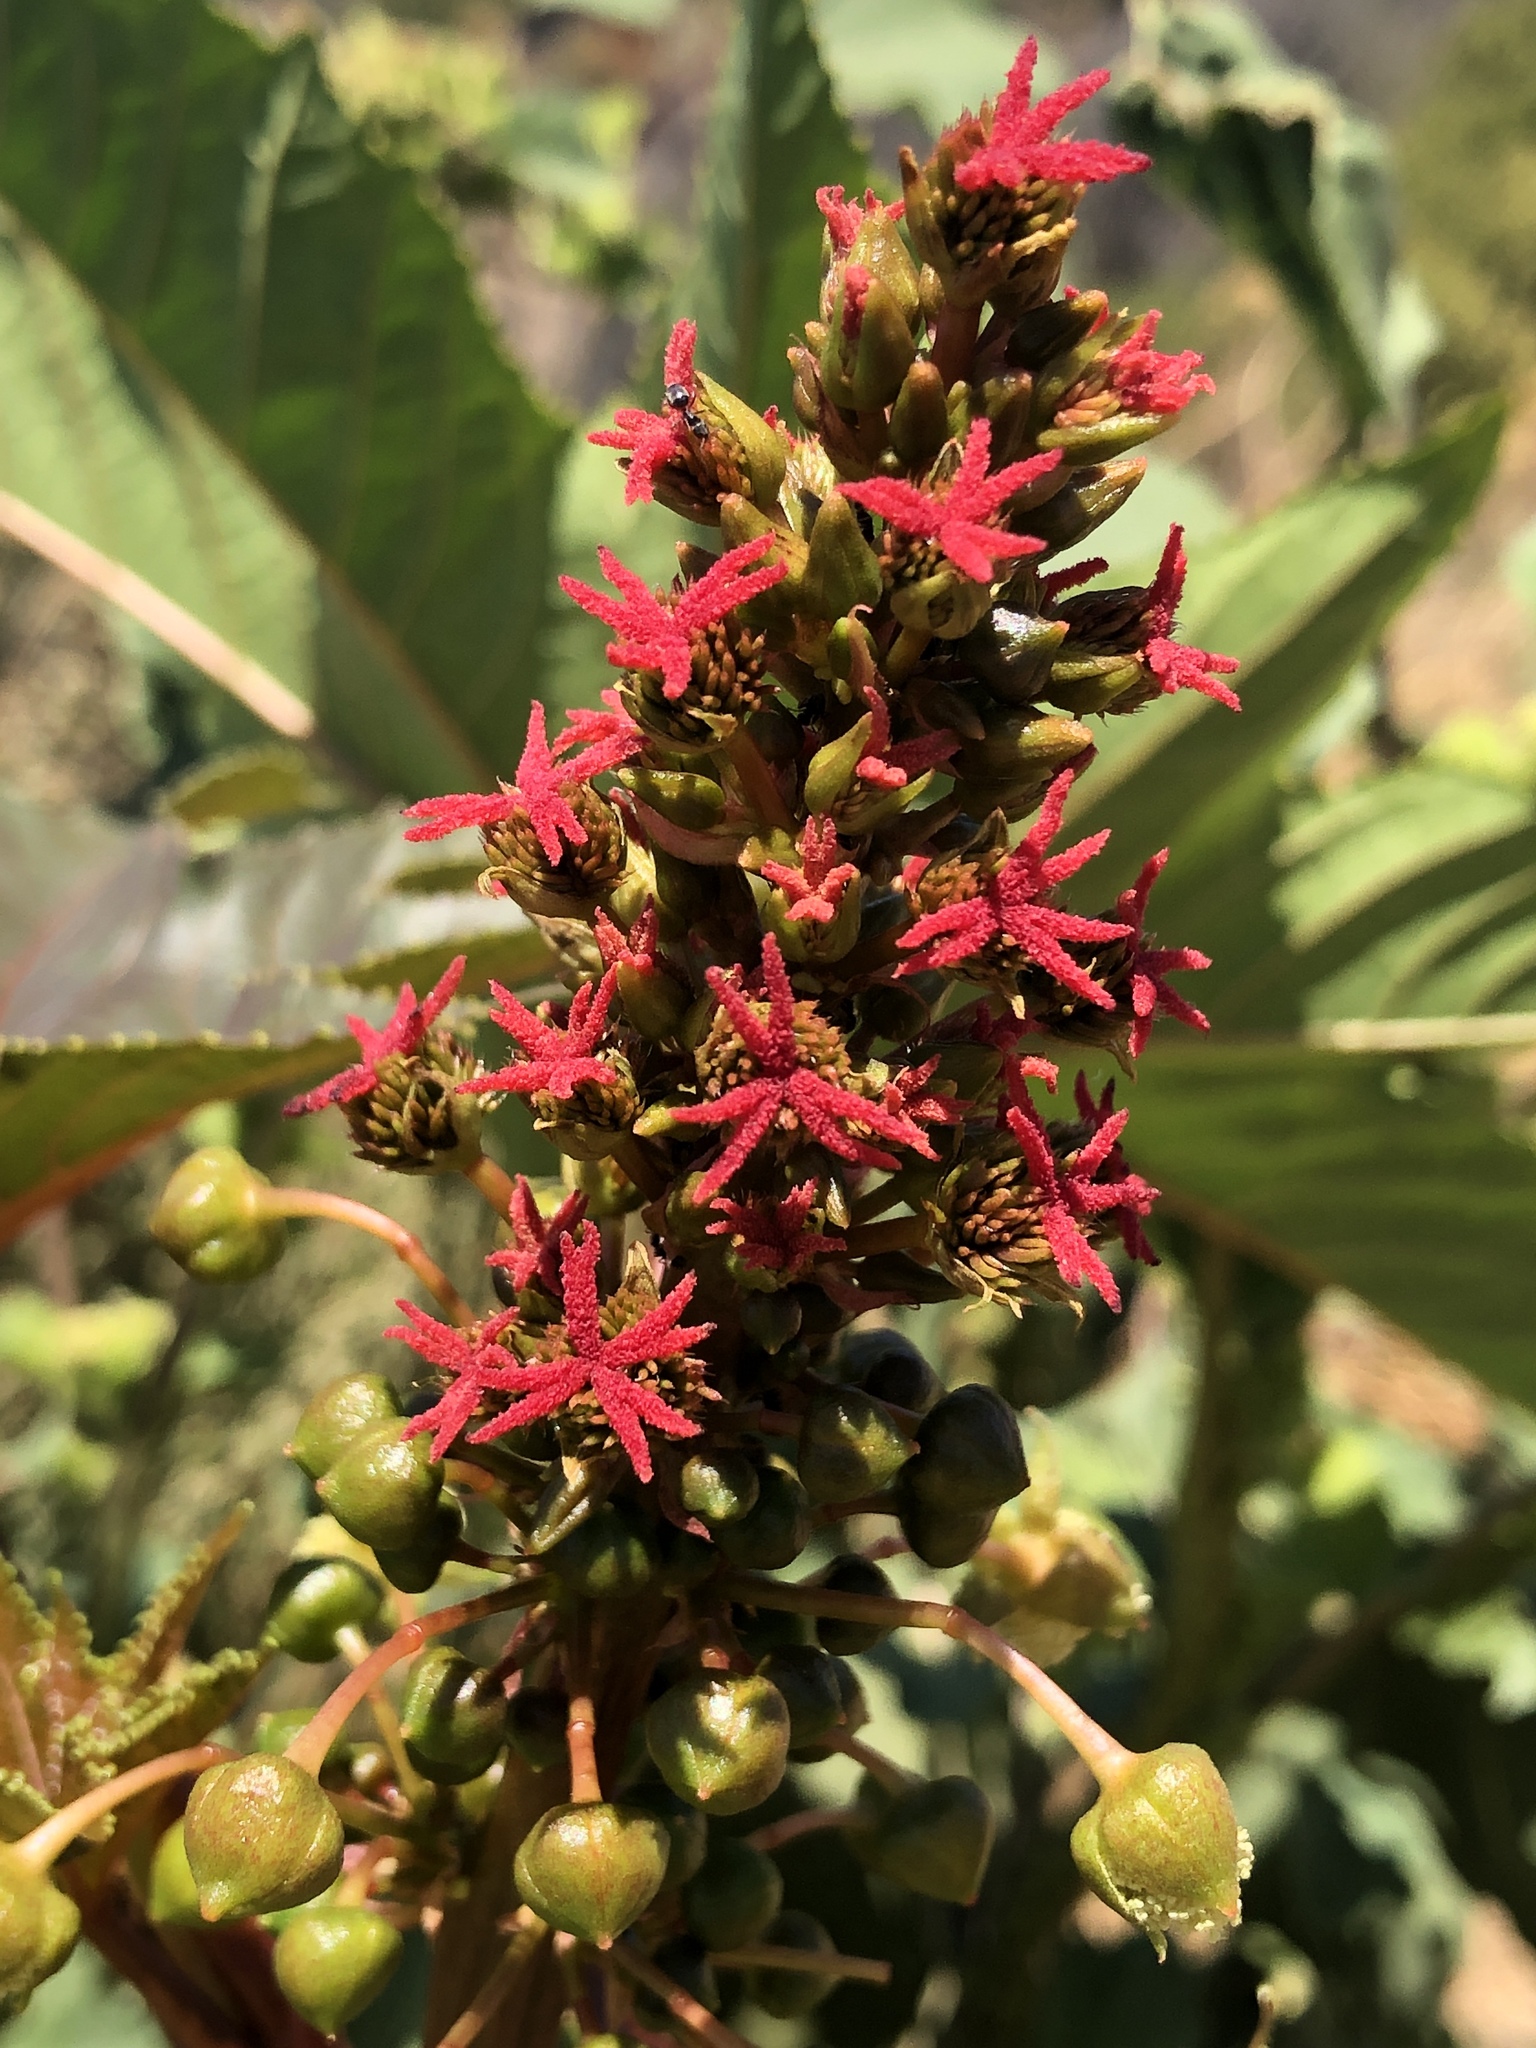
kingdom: Plantae
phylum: Tracheophyta
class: Magnoliopsida
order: Malpighiales
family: Euphorbiaceae
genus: Ricinus
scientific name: Ricinus communis
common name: Castor-oil-plant
